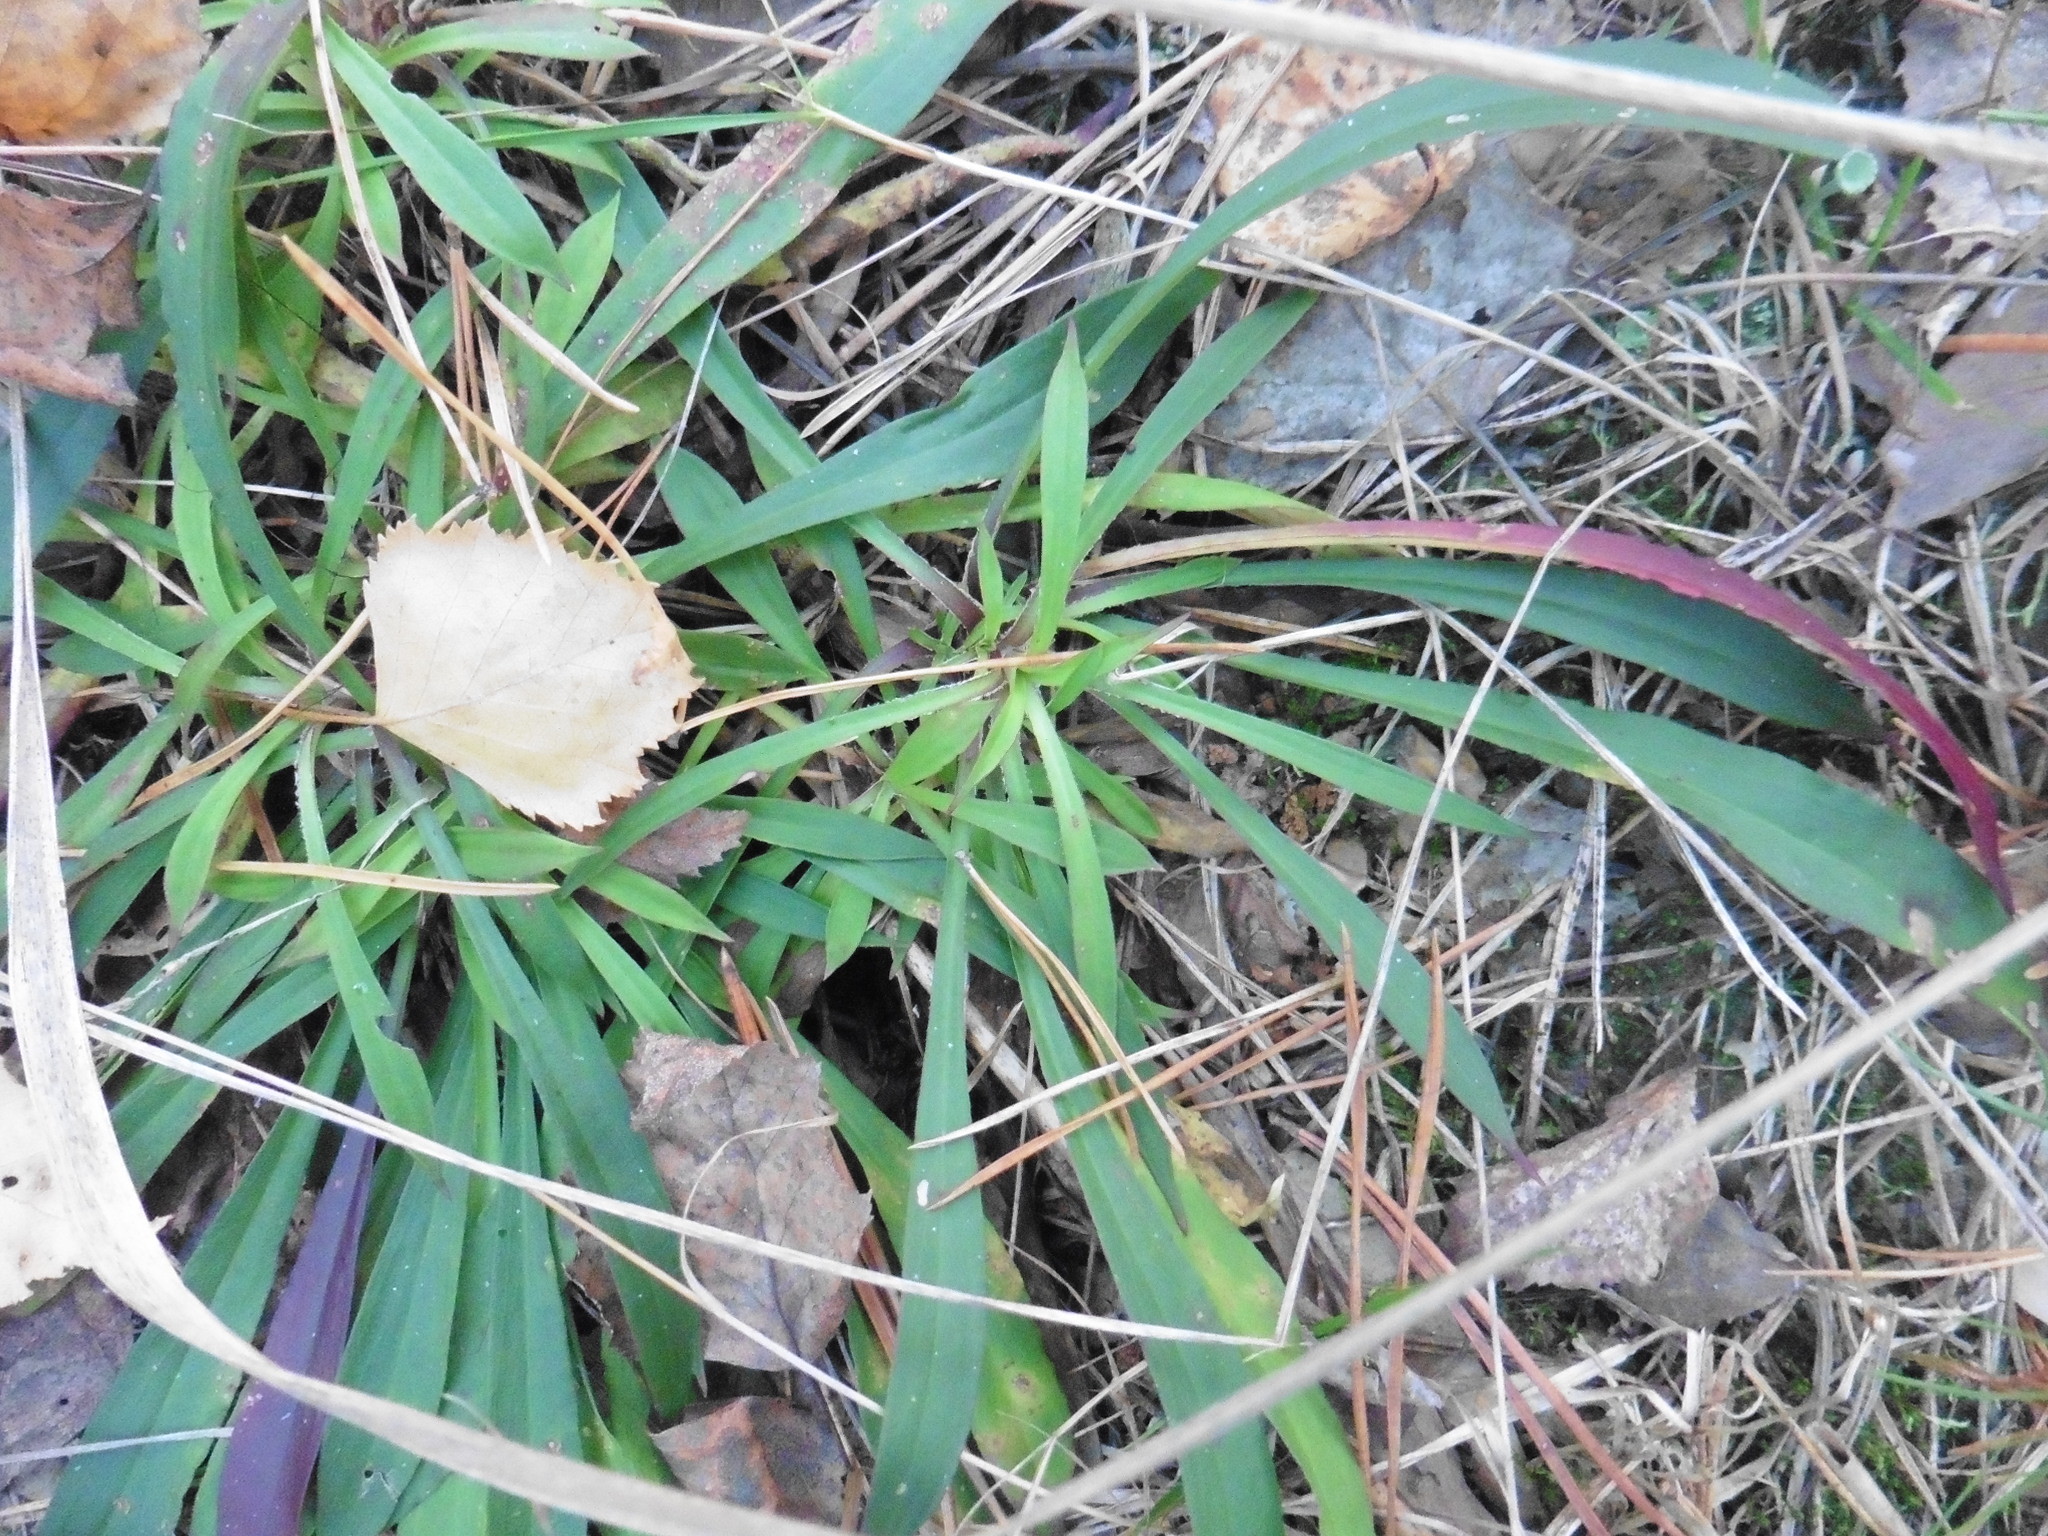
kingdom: Plantae
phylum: Tracheophyta
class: Magnoliopsida
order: Caryophyllales
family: Caryophyllaceae
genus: Viscaria
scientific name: Viscaria vulgaris
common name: Clammy campion
